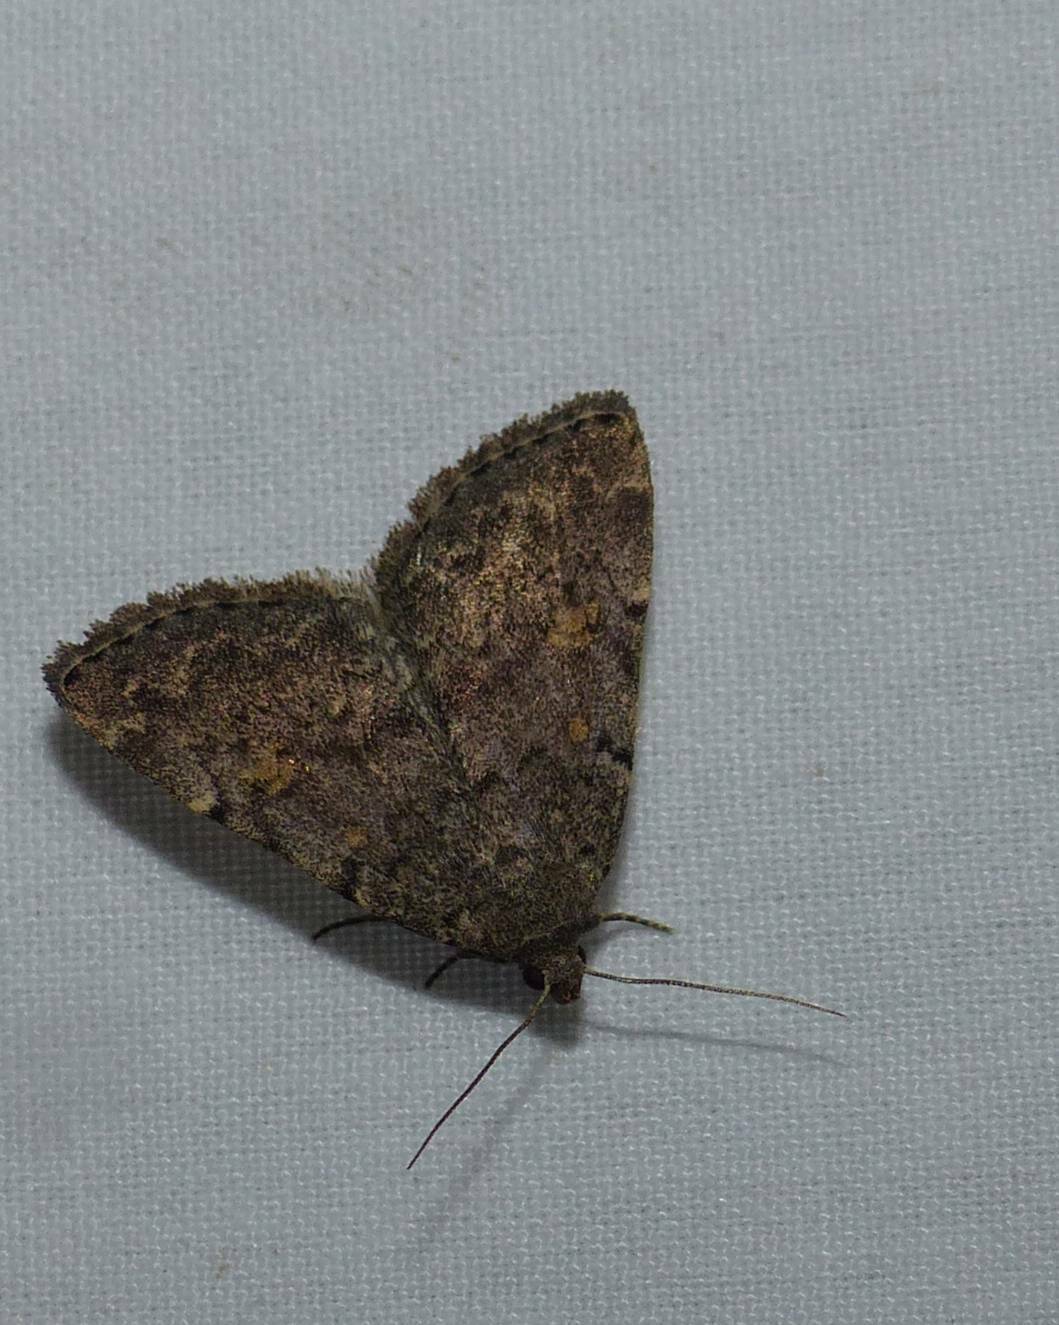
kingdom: Animalia
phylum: Arthropoda
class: Insecta
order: Lepidoptera
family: Erebidae
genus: Idia
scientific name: Idia aemula
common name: Common idia moth
